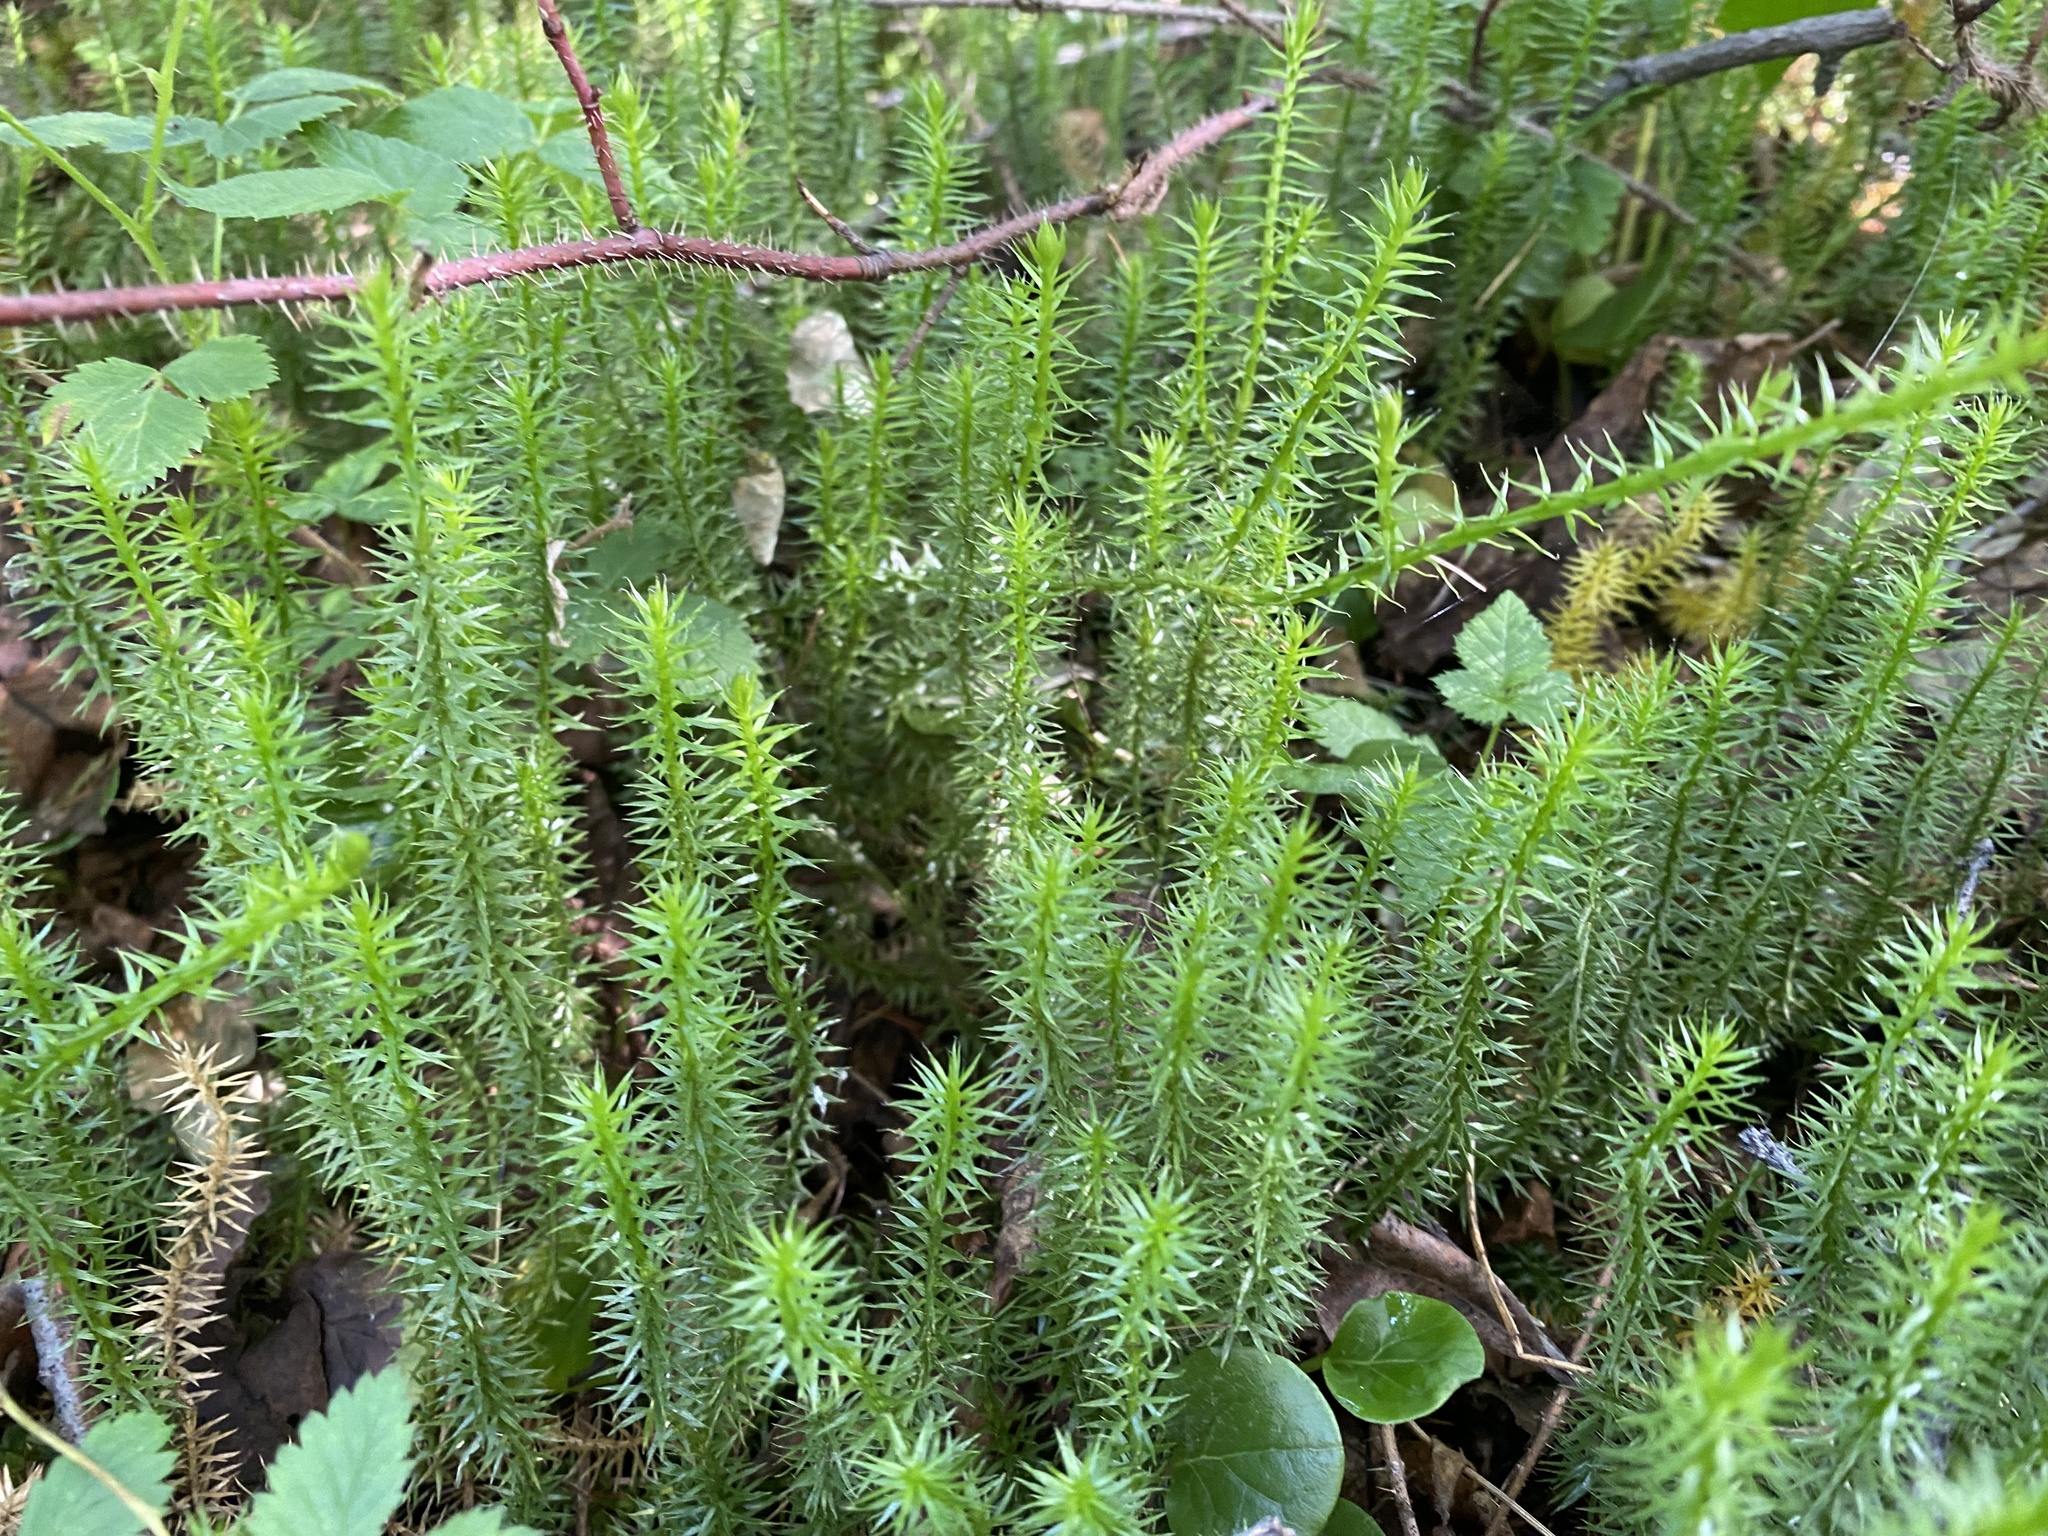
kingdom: Plantae
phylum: Tracheophyta
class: Lycopodiopsida
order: Lycopodiales
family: Lycopodiaceae
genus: Spinulum
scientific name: Spinulum annotinum
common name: Interrupted club-moss
